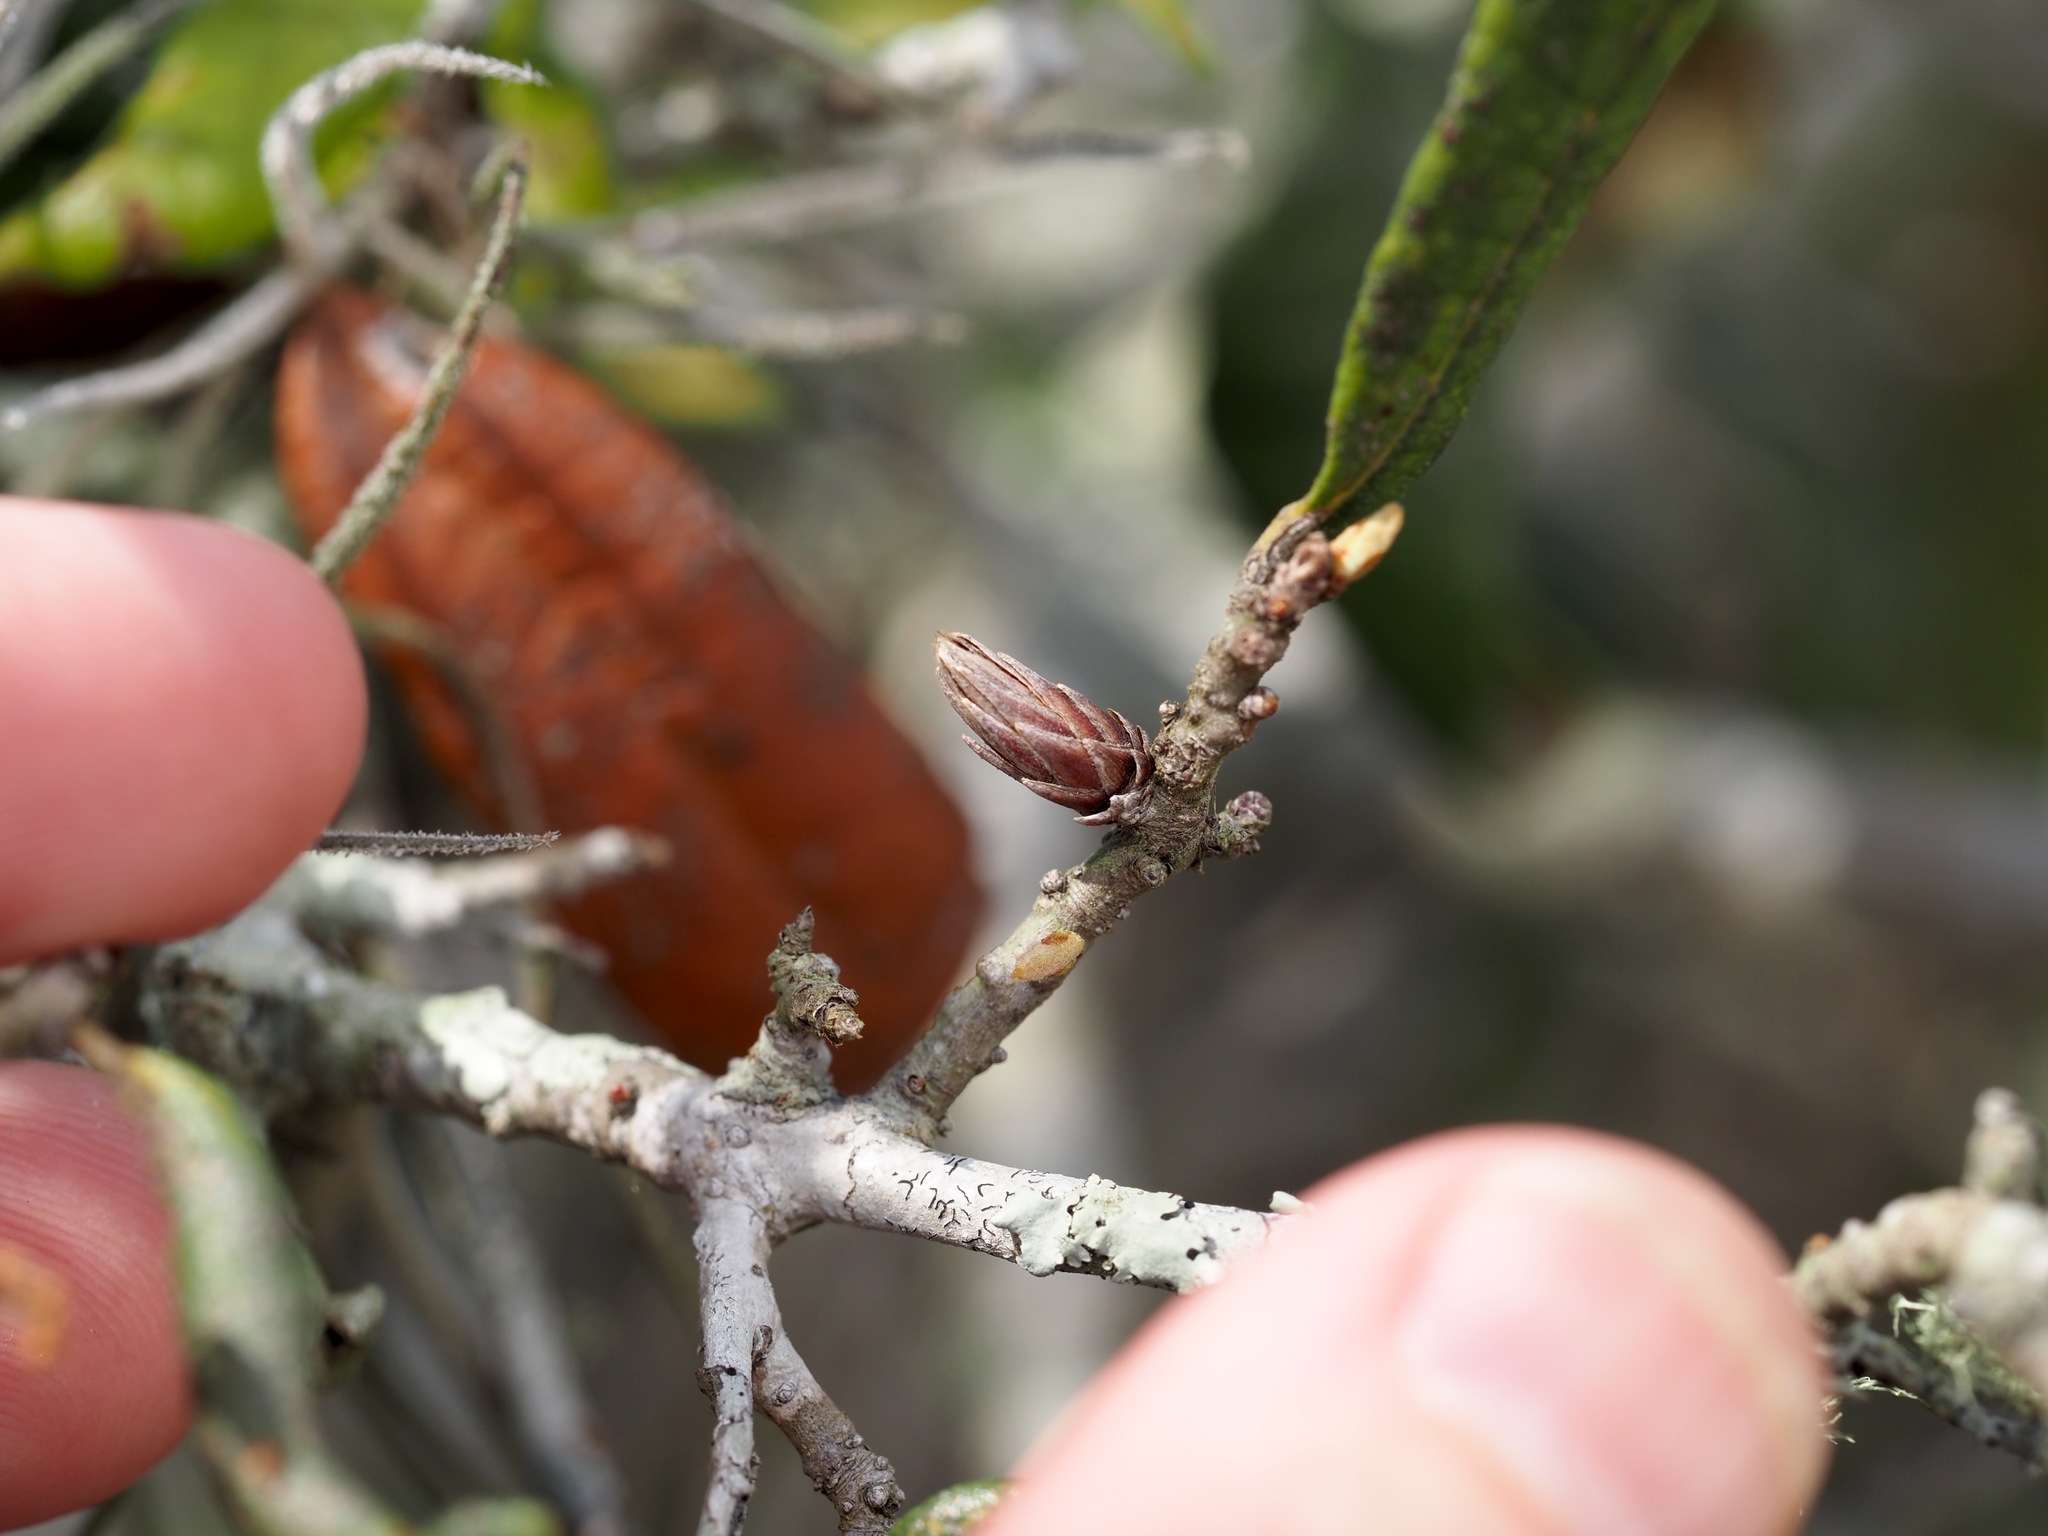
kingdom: Animalia
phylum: Arthropoda
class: Insecta
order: Diptera
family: Cecidomyiidae
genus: Arnoldiola
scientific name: Arnoldiola atra
